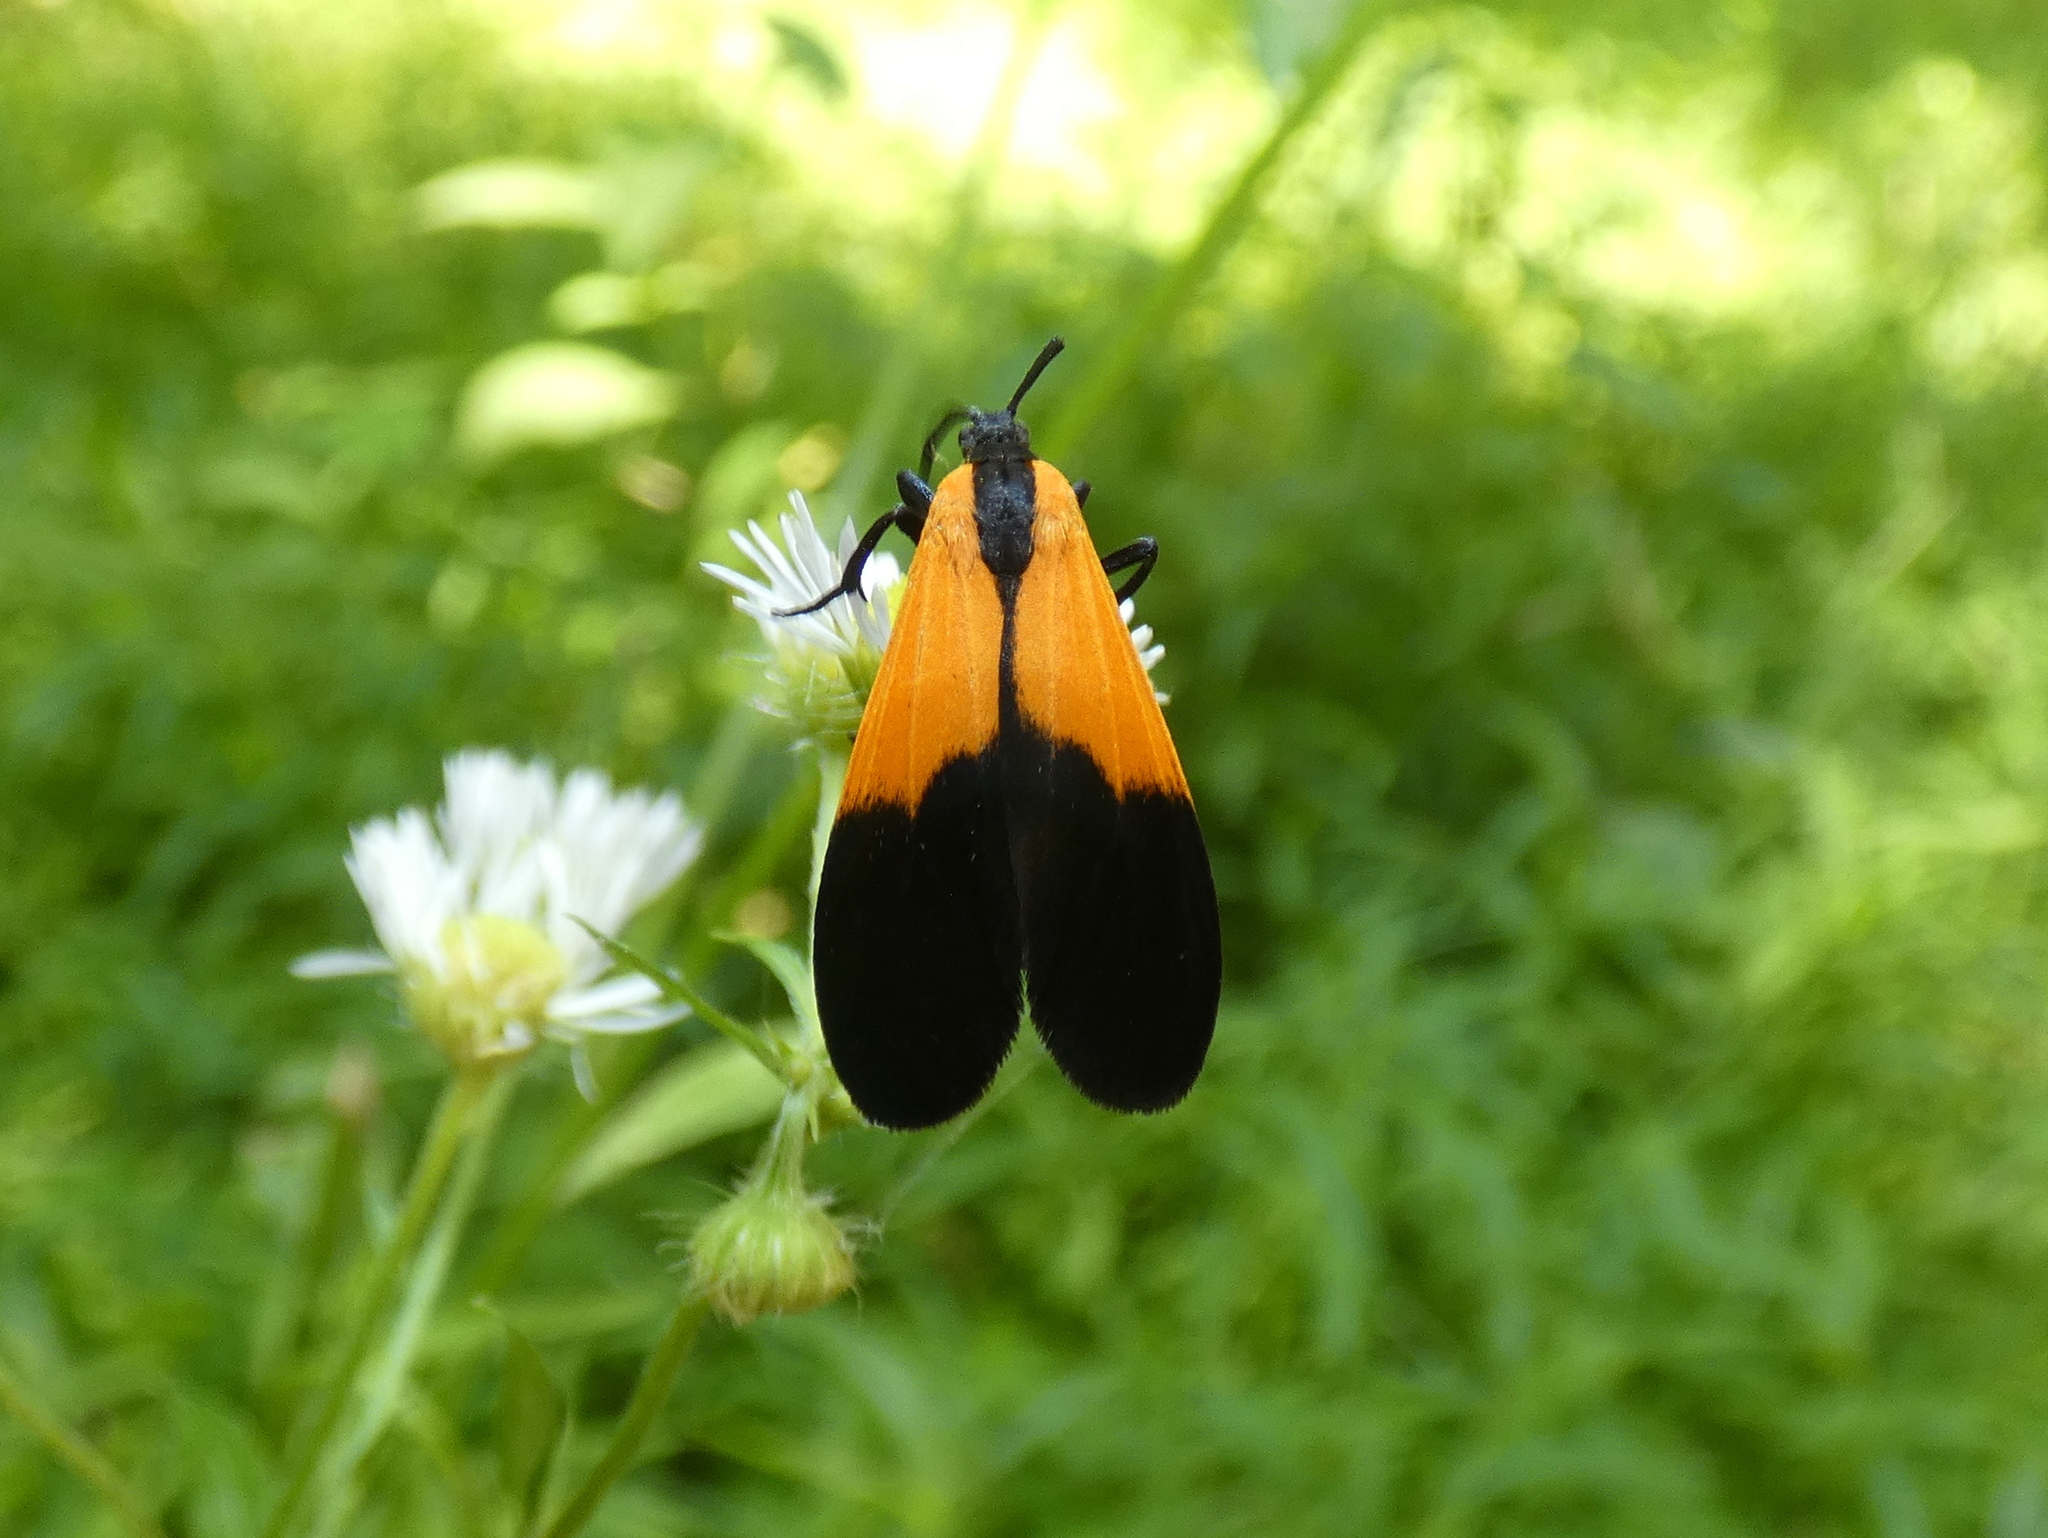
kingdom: Animalia
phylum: Arthropoda
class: Insecta
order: Lepidoptera
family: Erebidae
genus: Lycomorpha
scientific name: Lycomorpha pholus
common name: Black-and-yellow lichen moth
